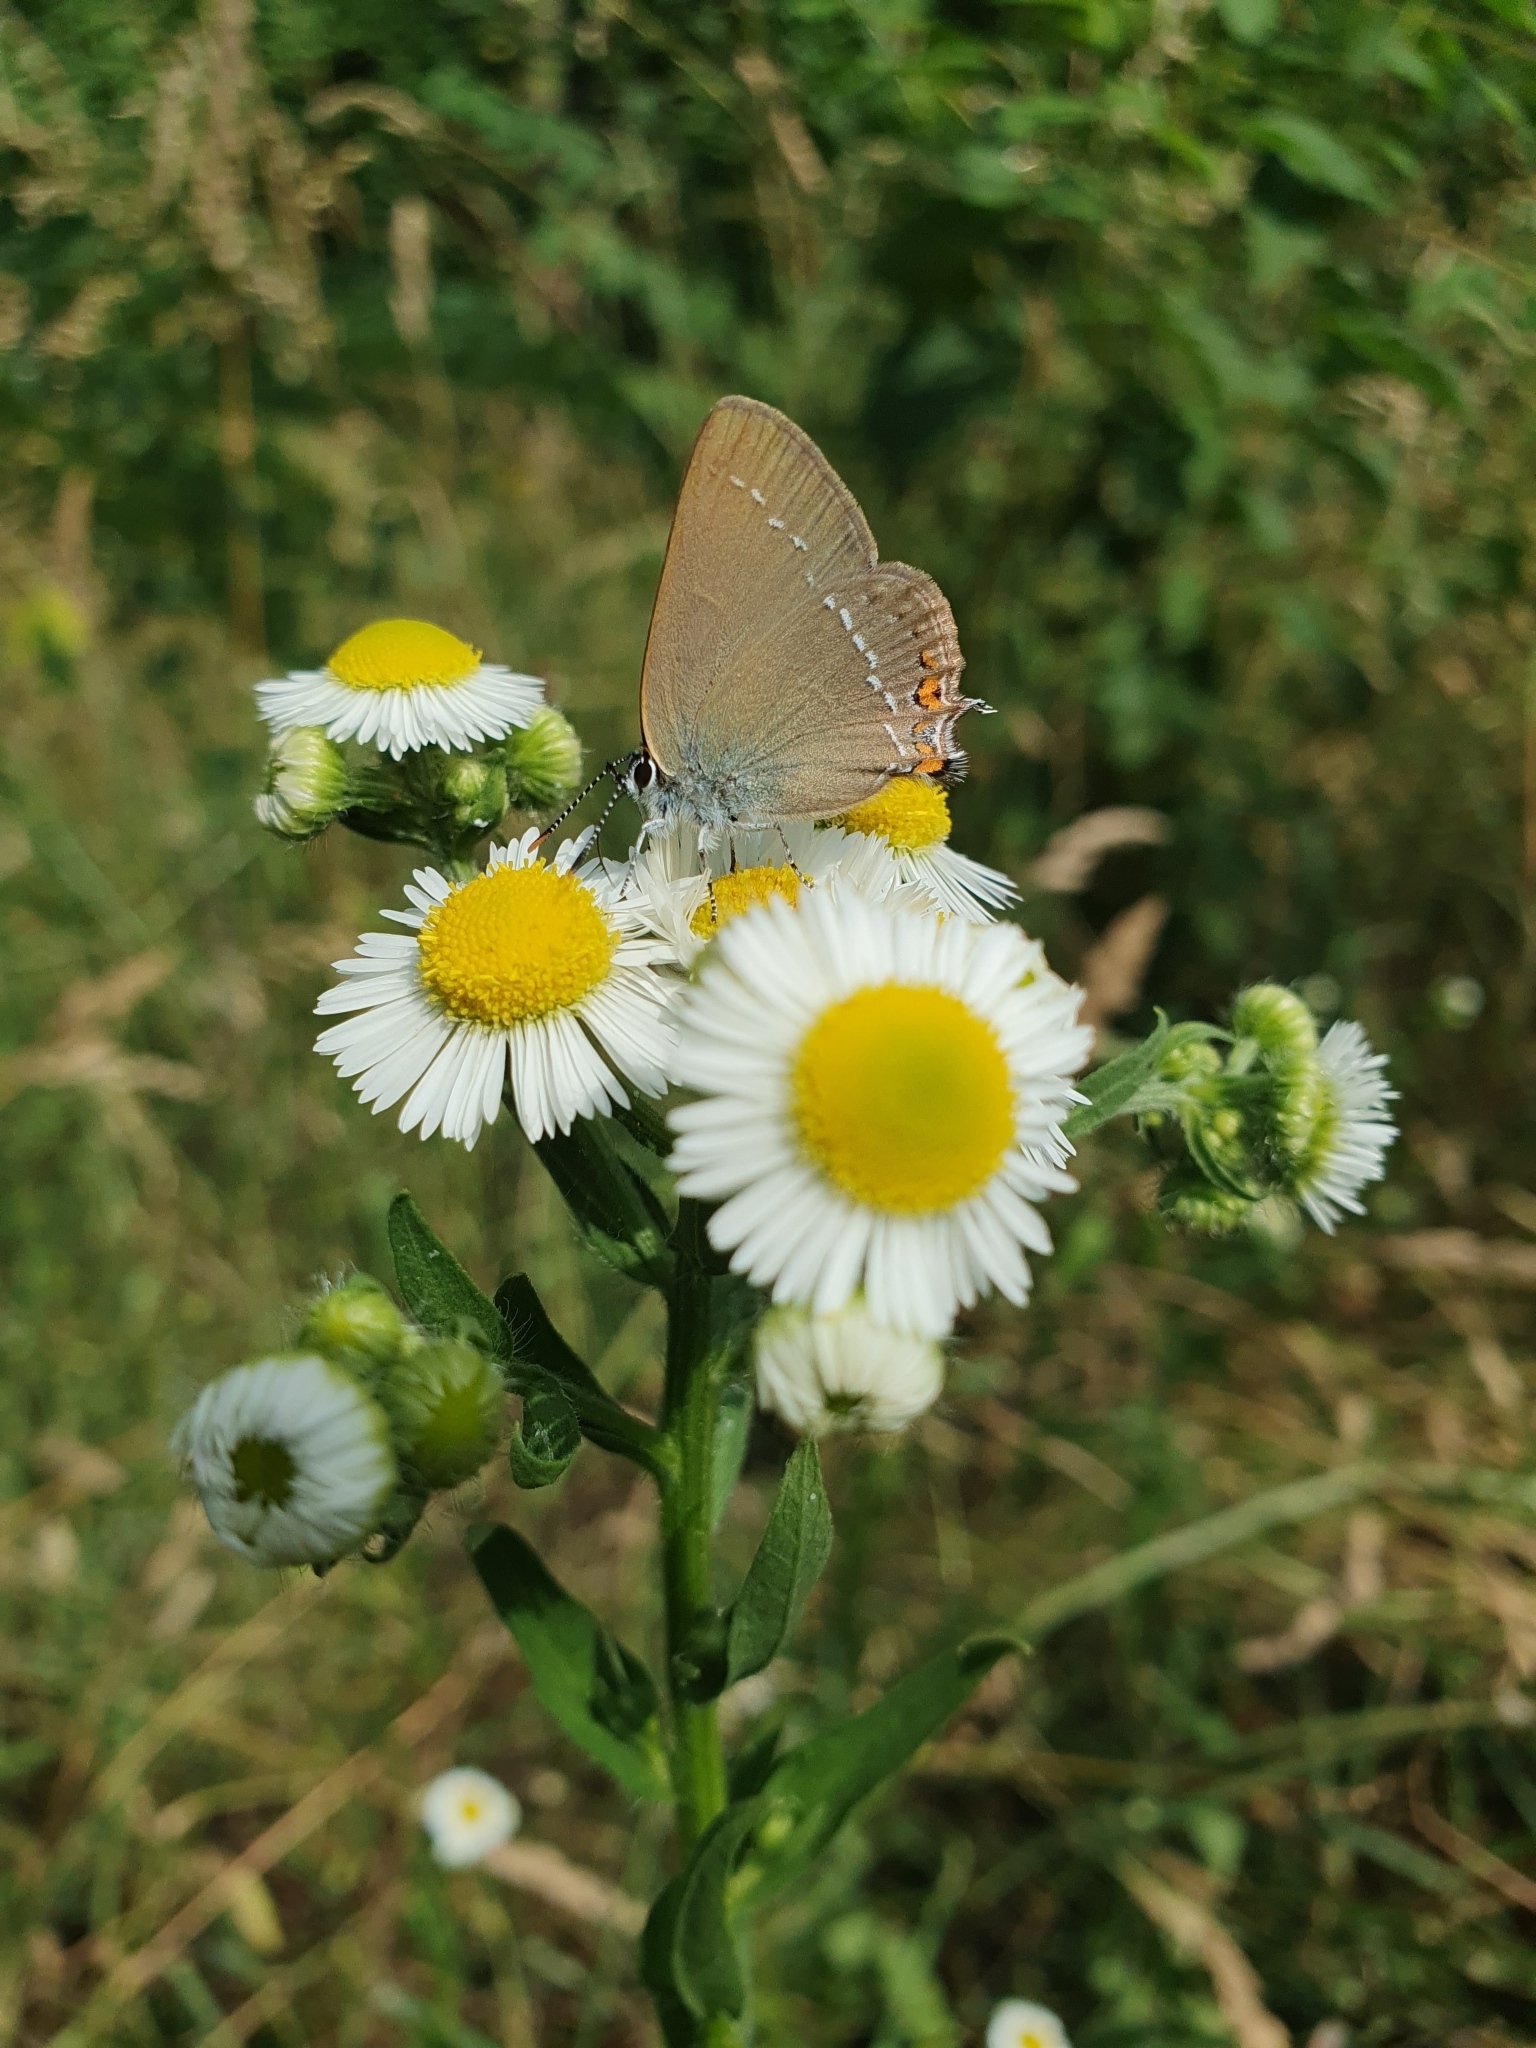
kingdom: Animalia
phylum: Arthropoda
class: Insecta
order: Lepidoptera
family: Lycaenidae
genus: Strymon
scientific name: Strymon acaciae
